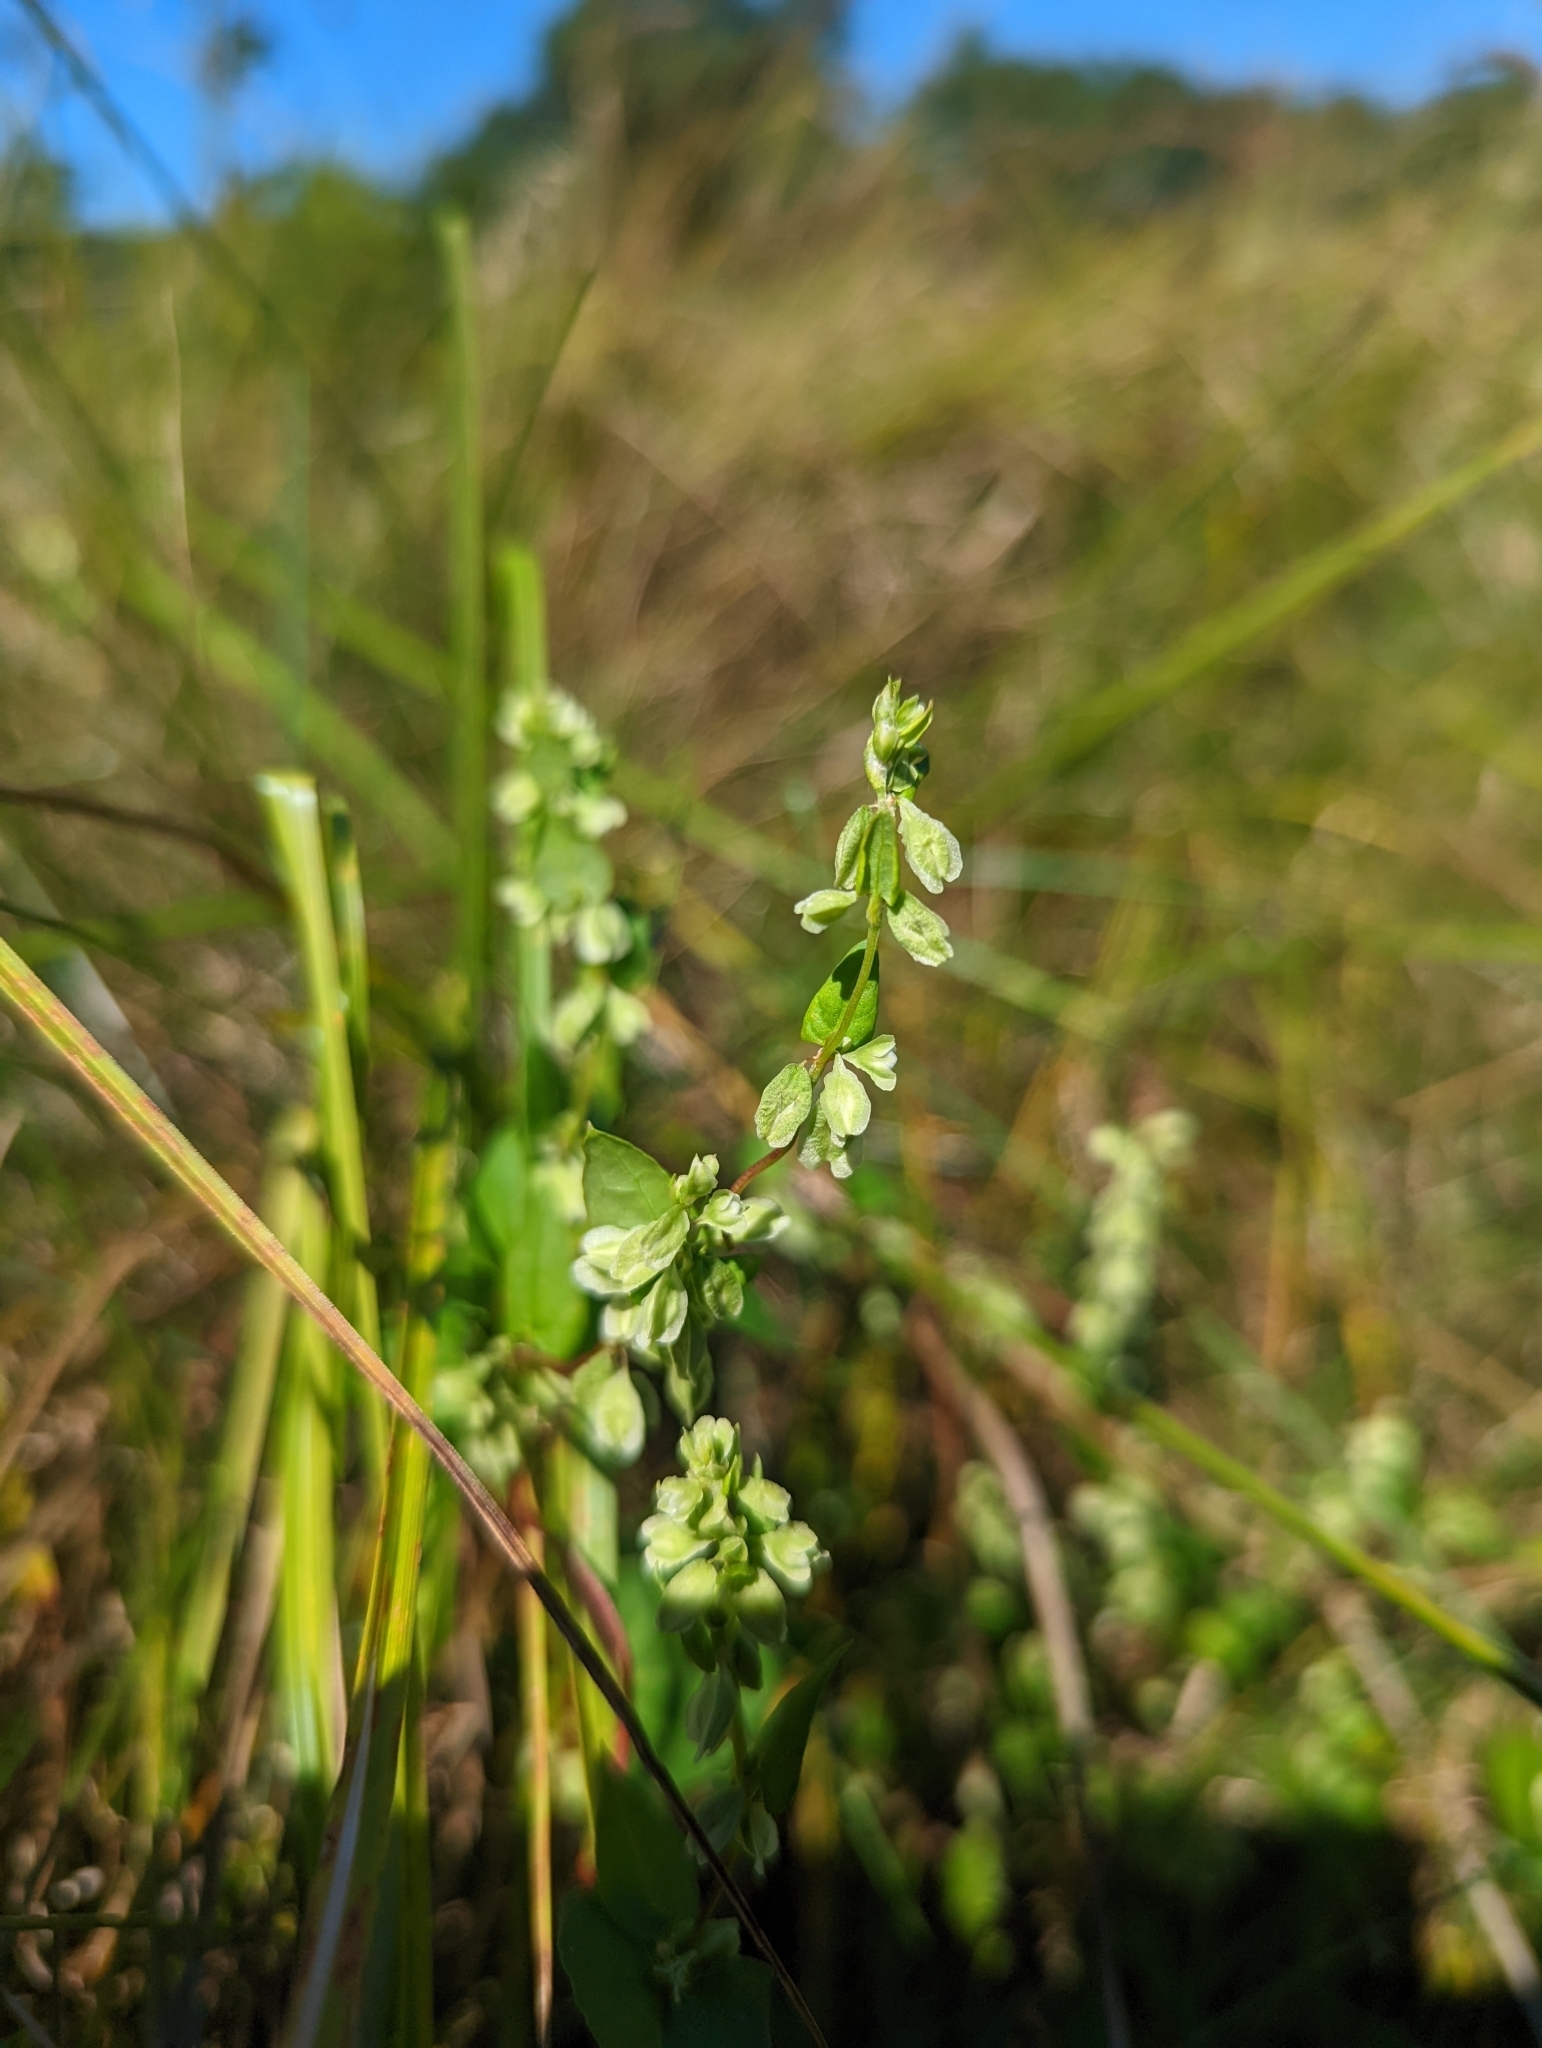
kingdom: Plantae
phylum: Tracheophyta
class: Magnoliopsida
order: Caryophyllales
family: Polygonaceae
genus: Fallopia
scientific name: Fallopia scandens
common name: Climbing false buckwheat
